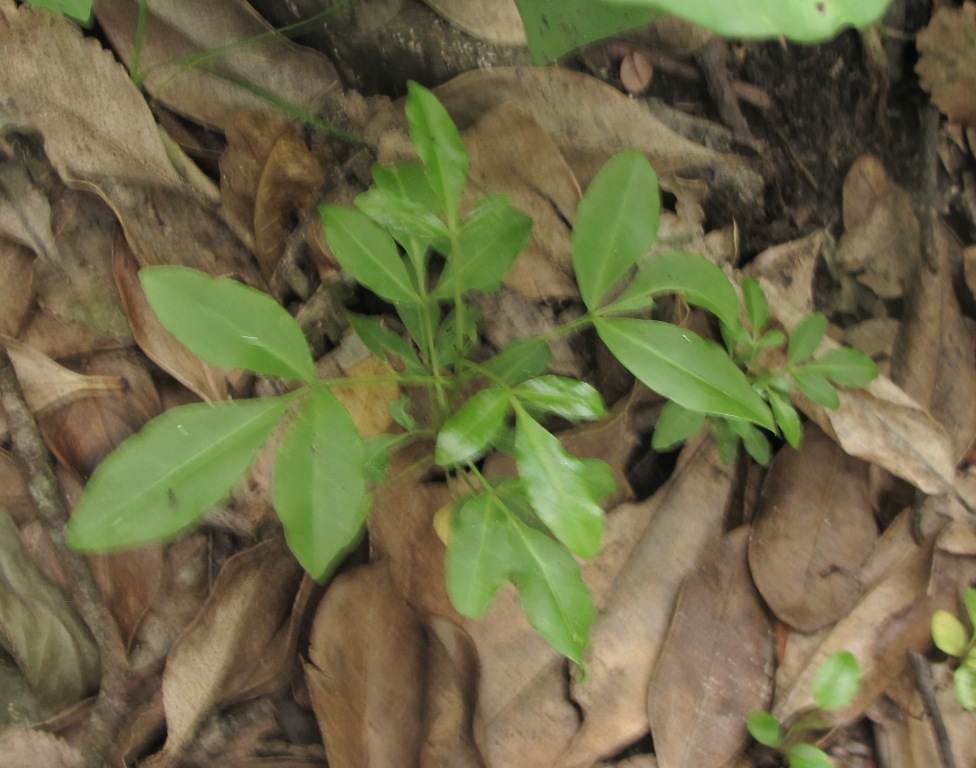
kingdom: Plantae
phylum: Tracheophyta
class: Magnoliopsida
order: Sapindales
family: Rutaceae
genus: Melicope
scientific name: Melicope ternata
